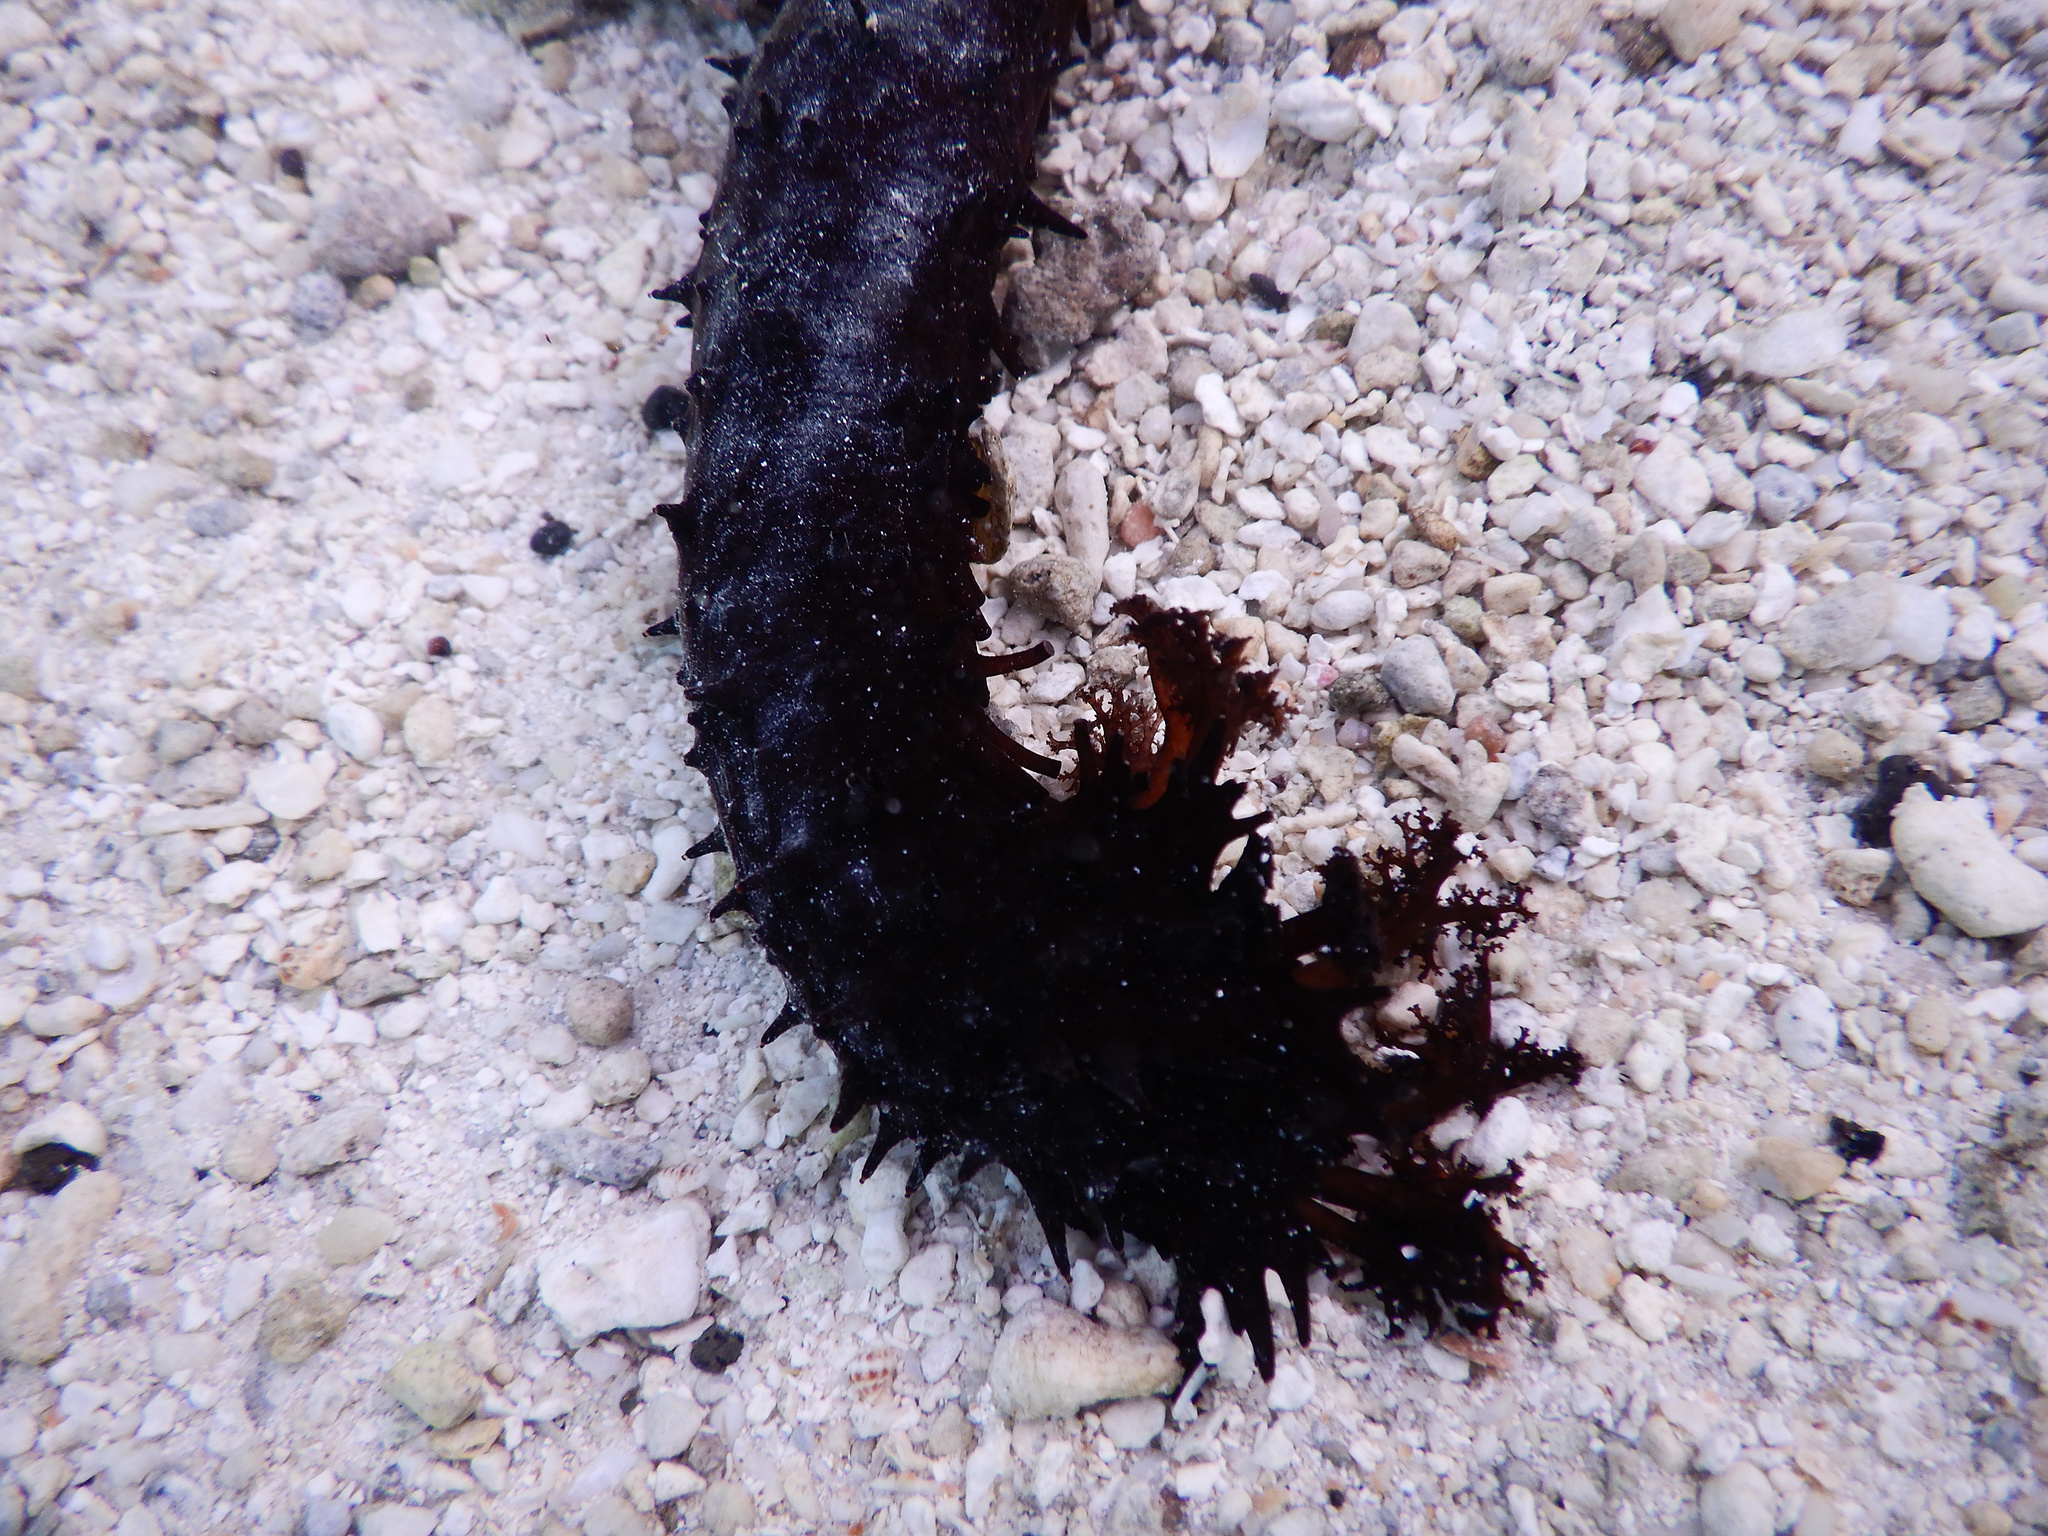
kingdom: Animalia
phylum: Echinodermata
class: Holothuroidea
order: Holothuriida
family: Holothuriidae
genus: Holothuria
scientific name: Holothuria leucospilota
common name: White thread fish
